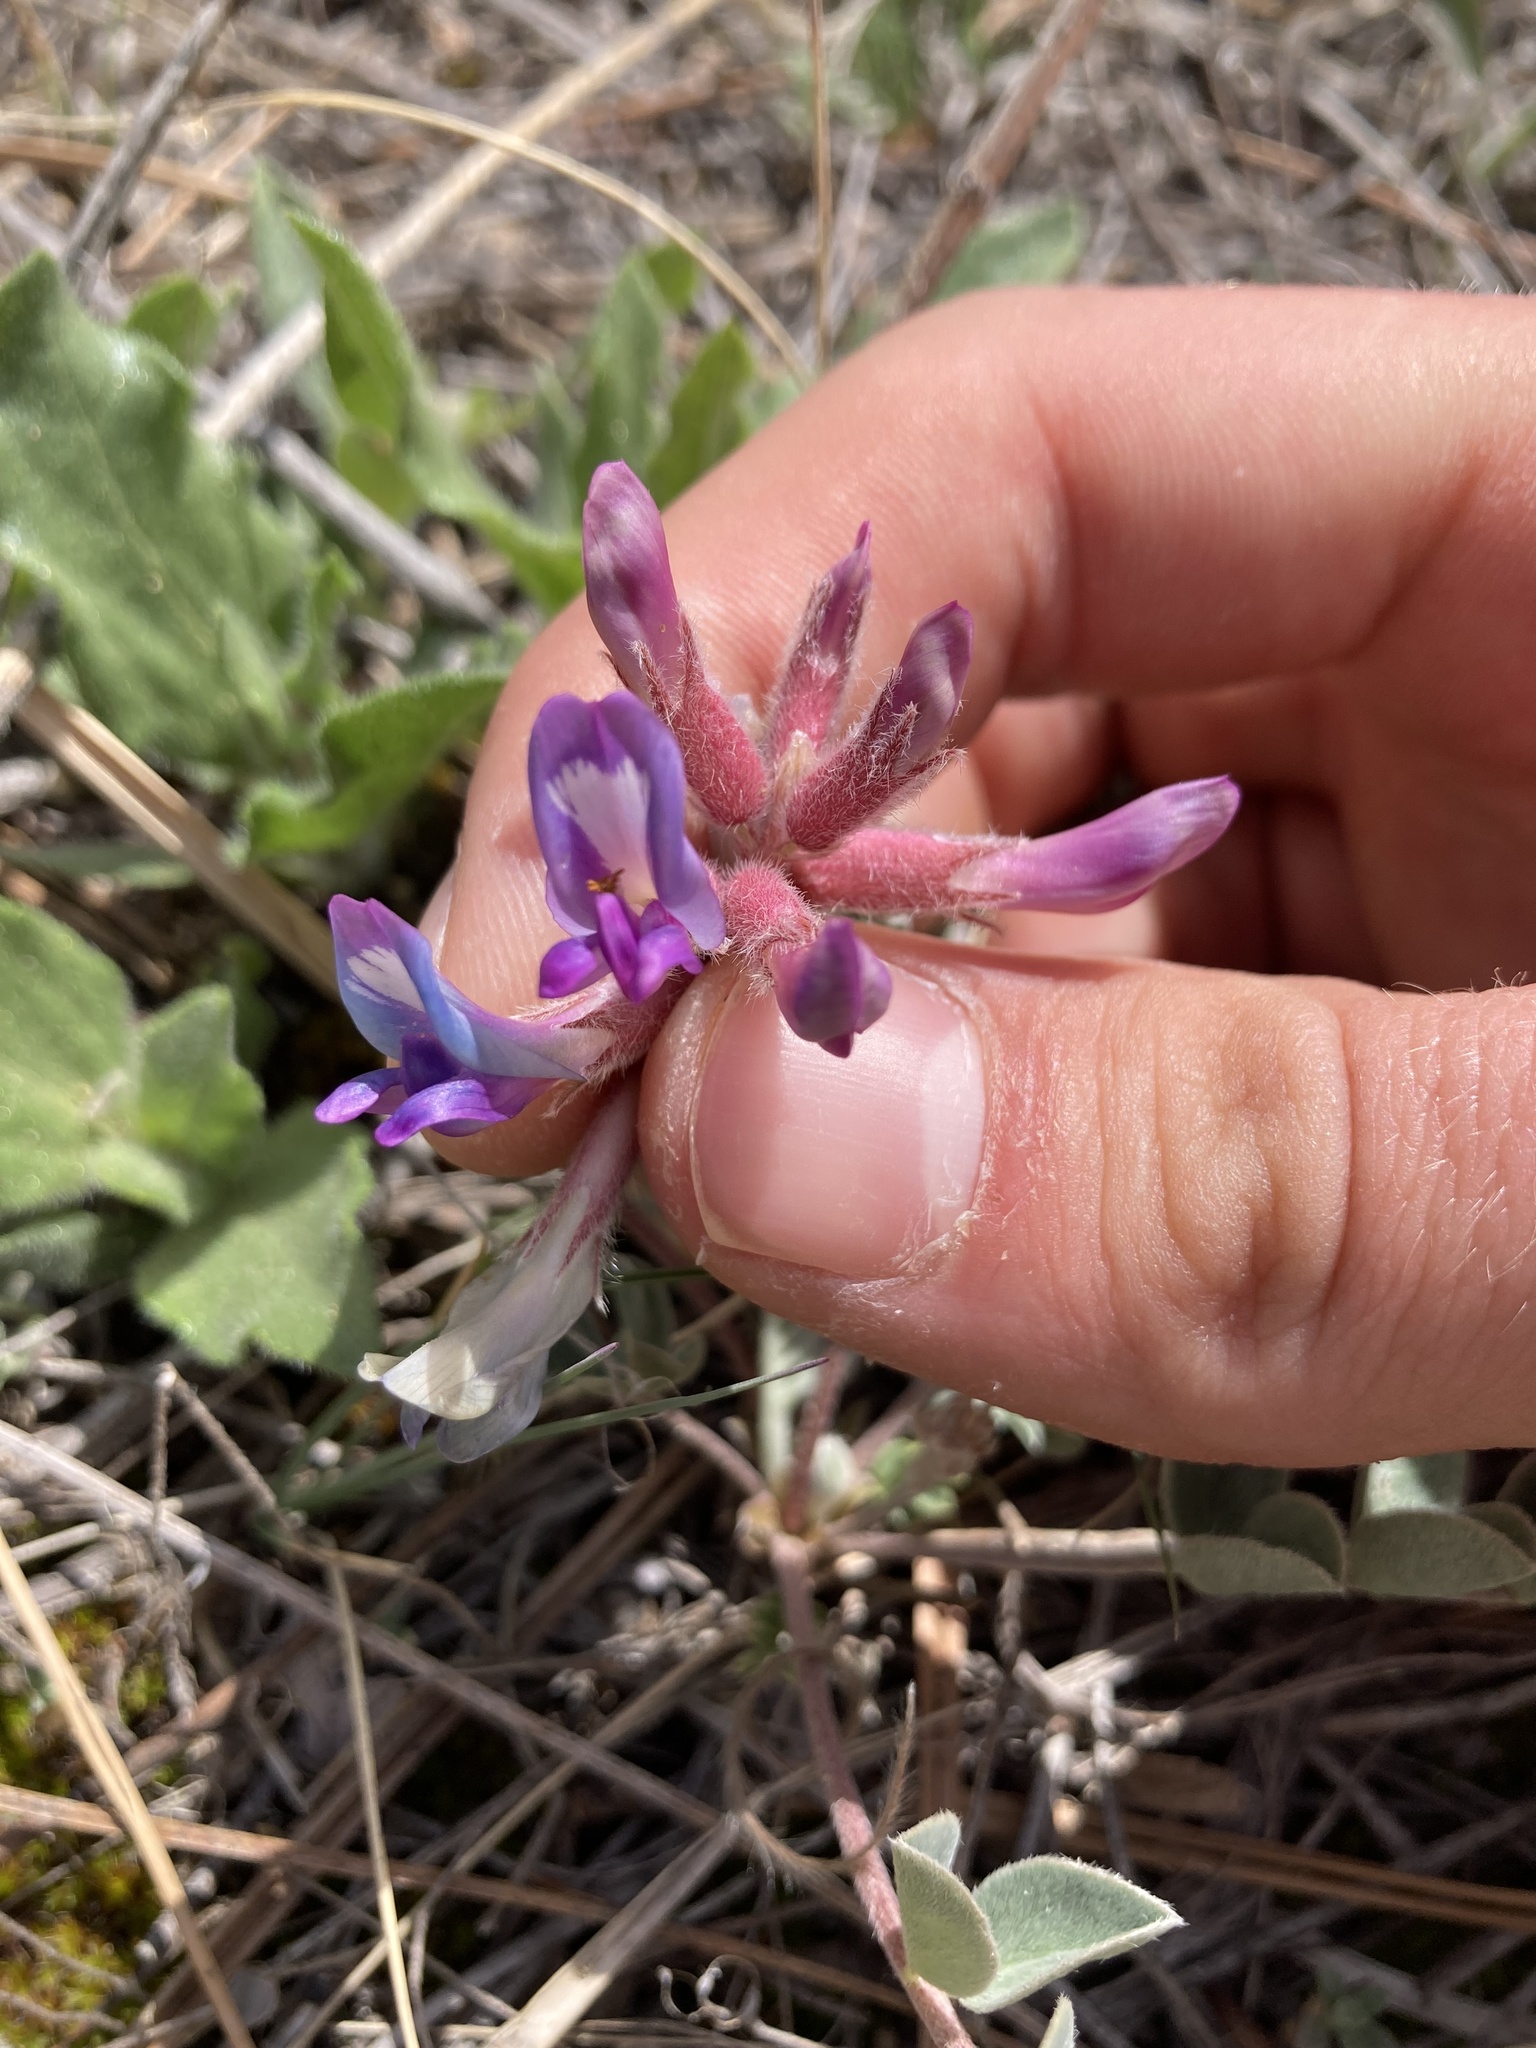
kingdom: Plantae
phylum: Tracheophyta
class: Magnoliopsida
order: Fabales
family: Fabaceae
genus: Astragalus
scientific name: Astragalus shortianus
